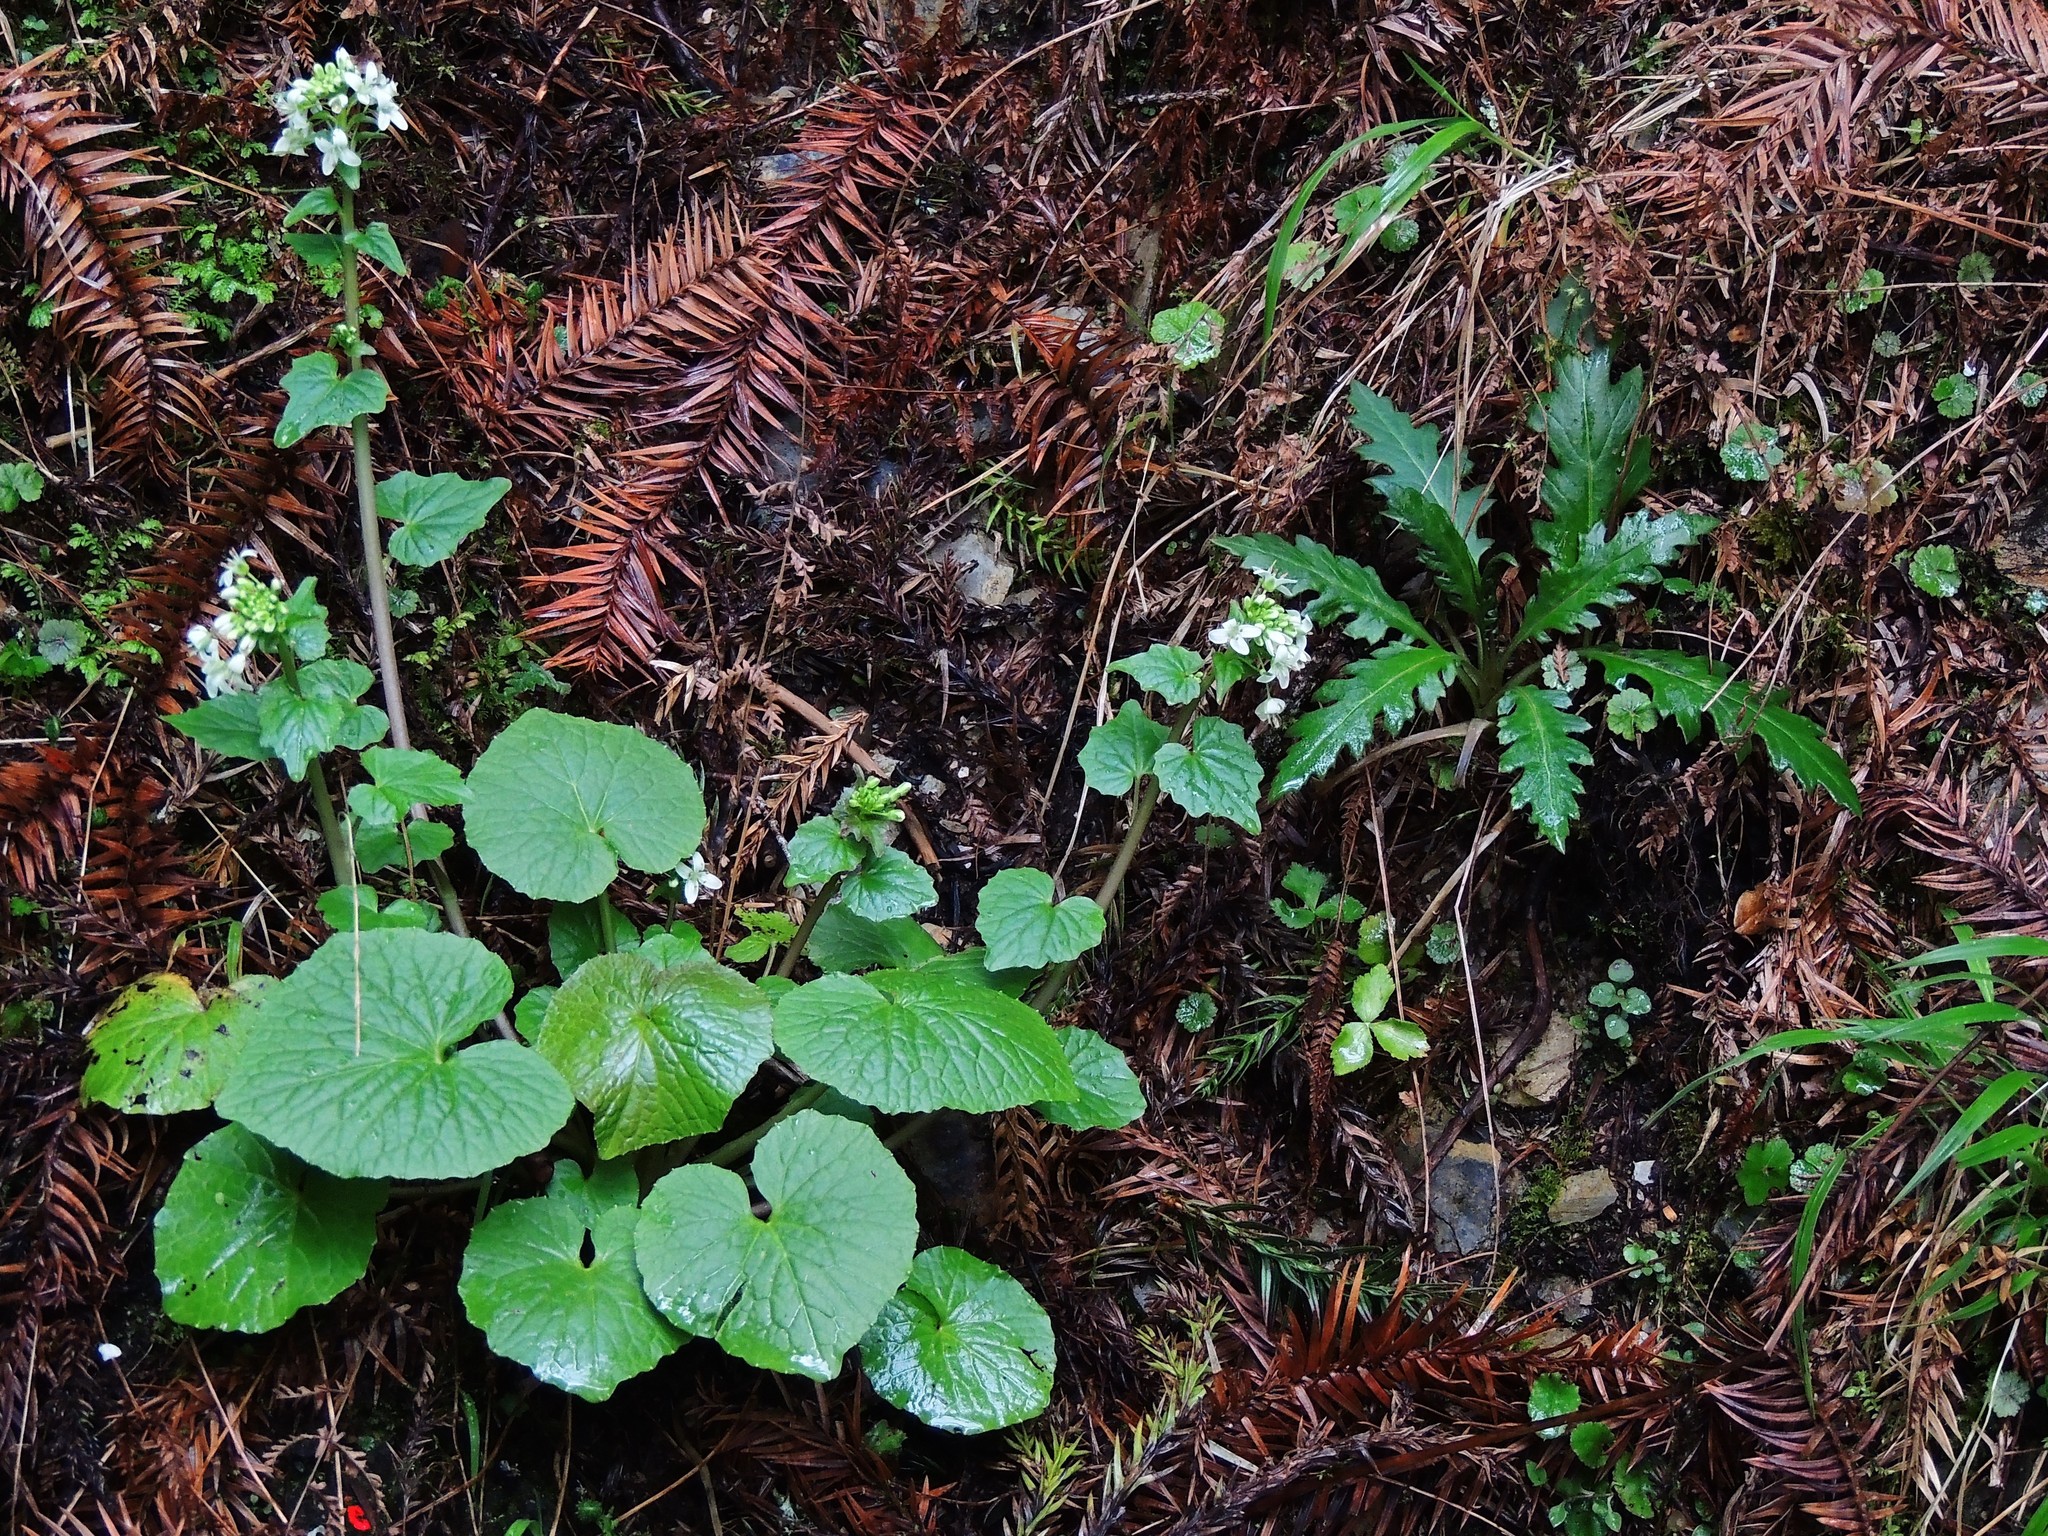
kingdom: Plantae
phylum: Tracheophyta
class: Magnoliopsida
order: Brassicales
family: Brassicaceae
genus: Eutrema
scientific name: Eutrema japonicum
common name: Japanese-horseradish
